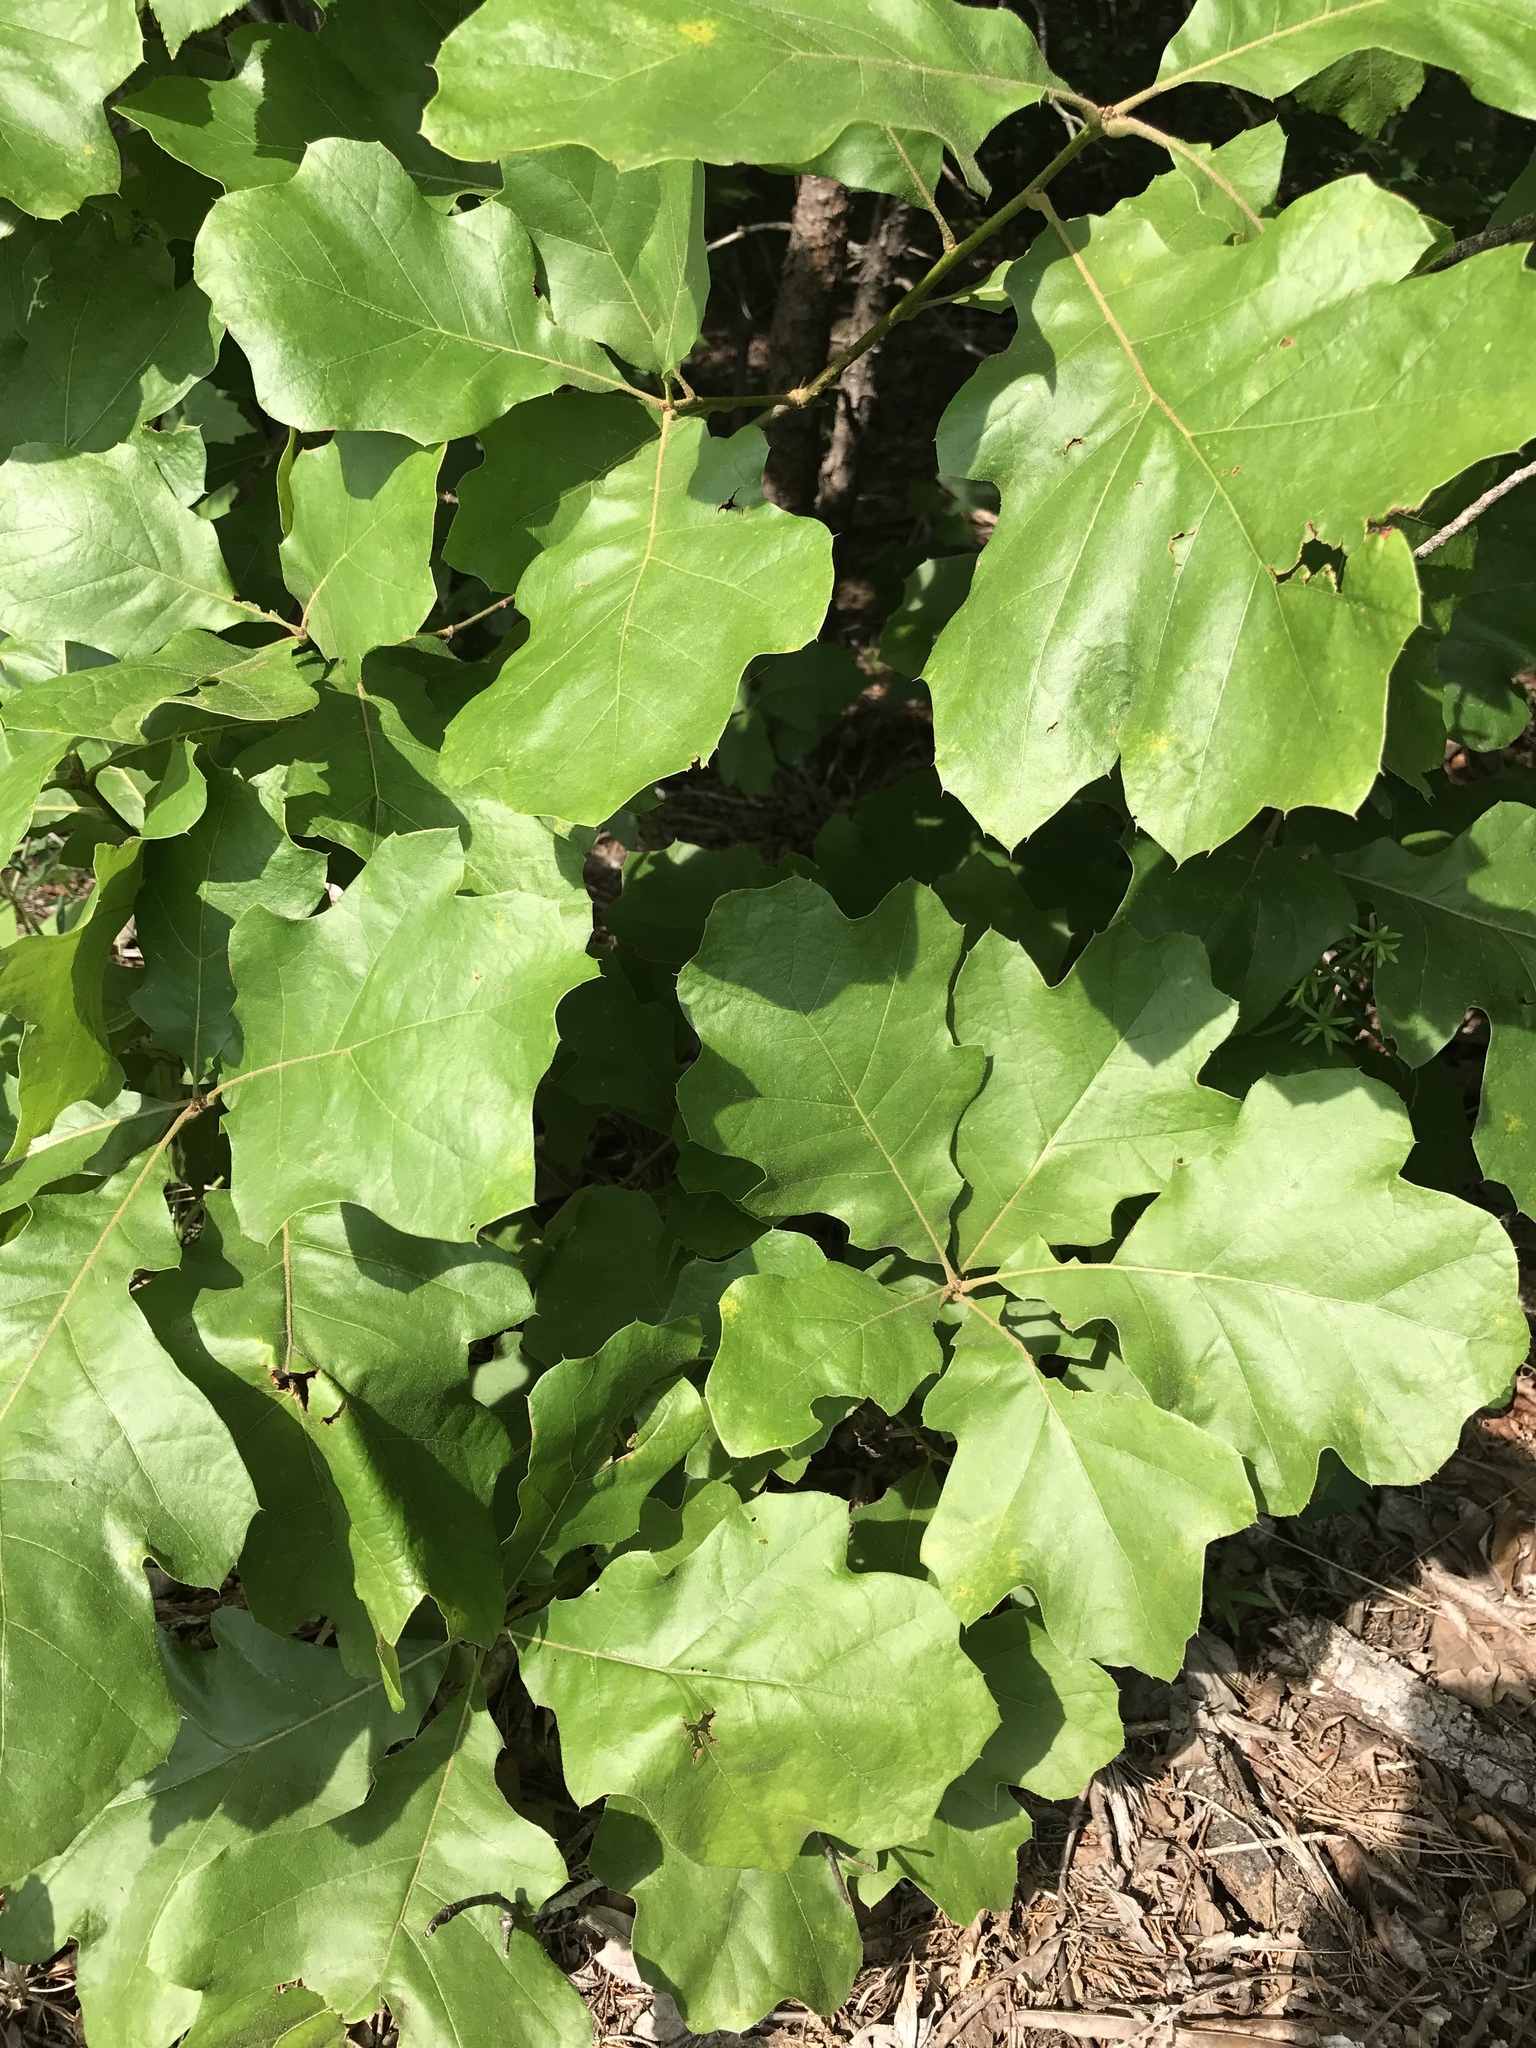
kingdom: Plantae
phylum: Tracheophyta
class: Magnoliopsida
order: Fagales
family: Fagaceae
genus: Quercus
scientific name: Quercus velutina
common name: Black oak
